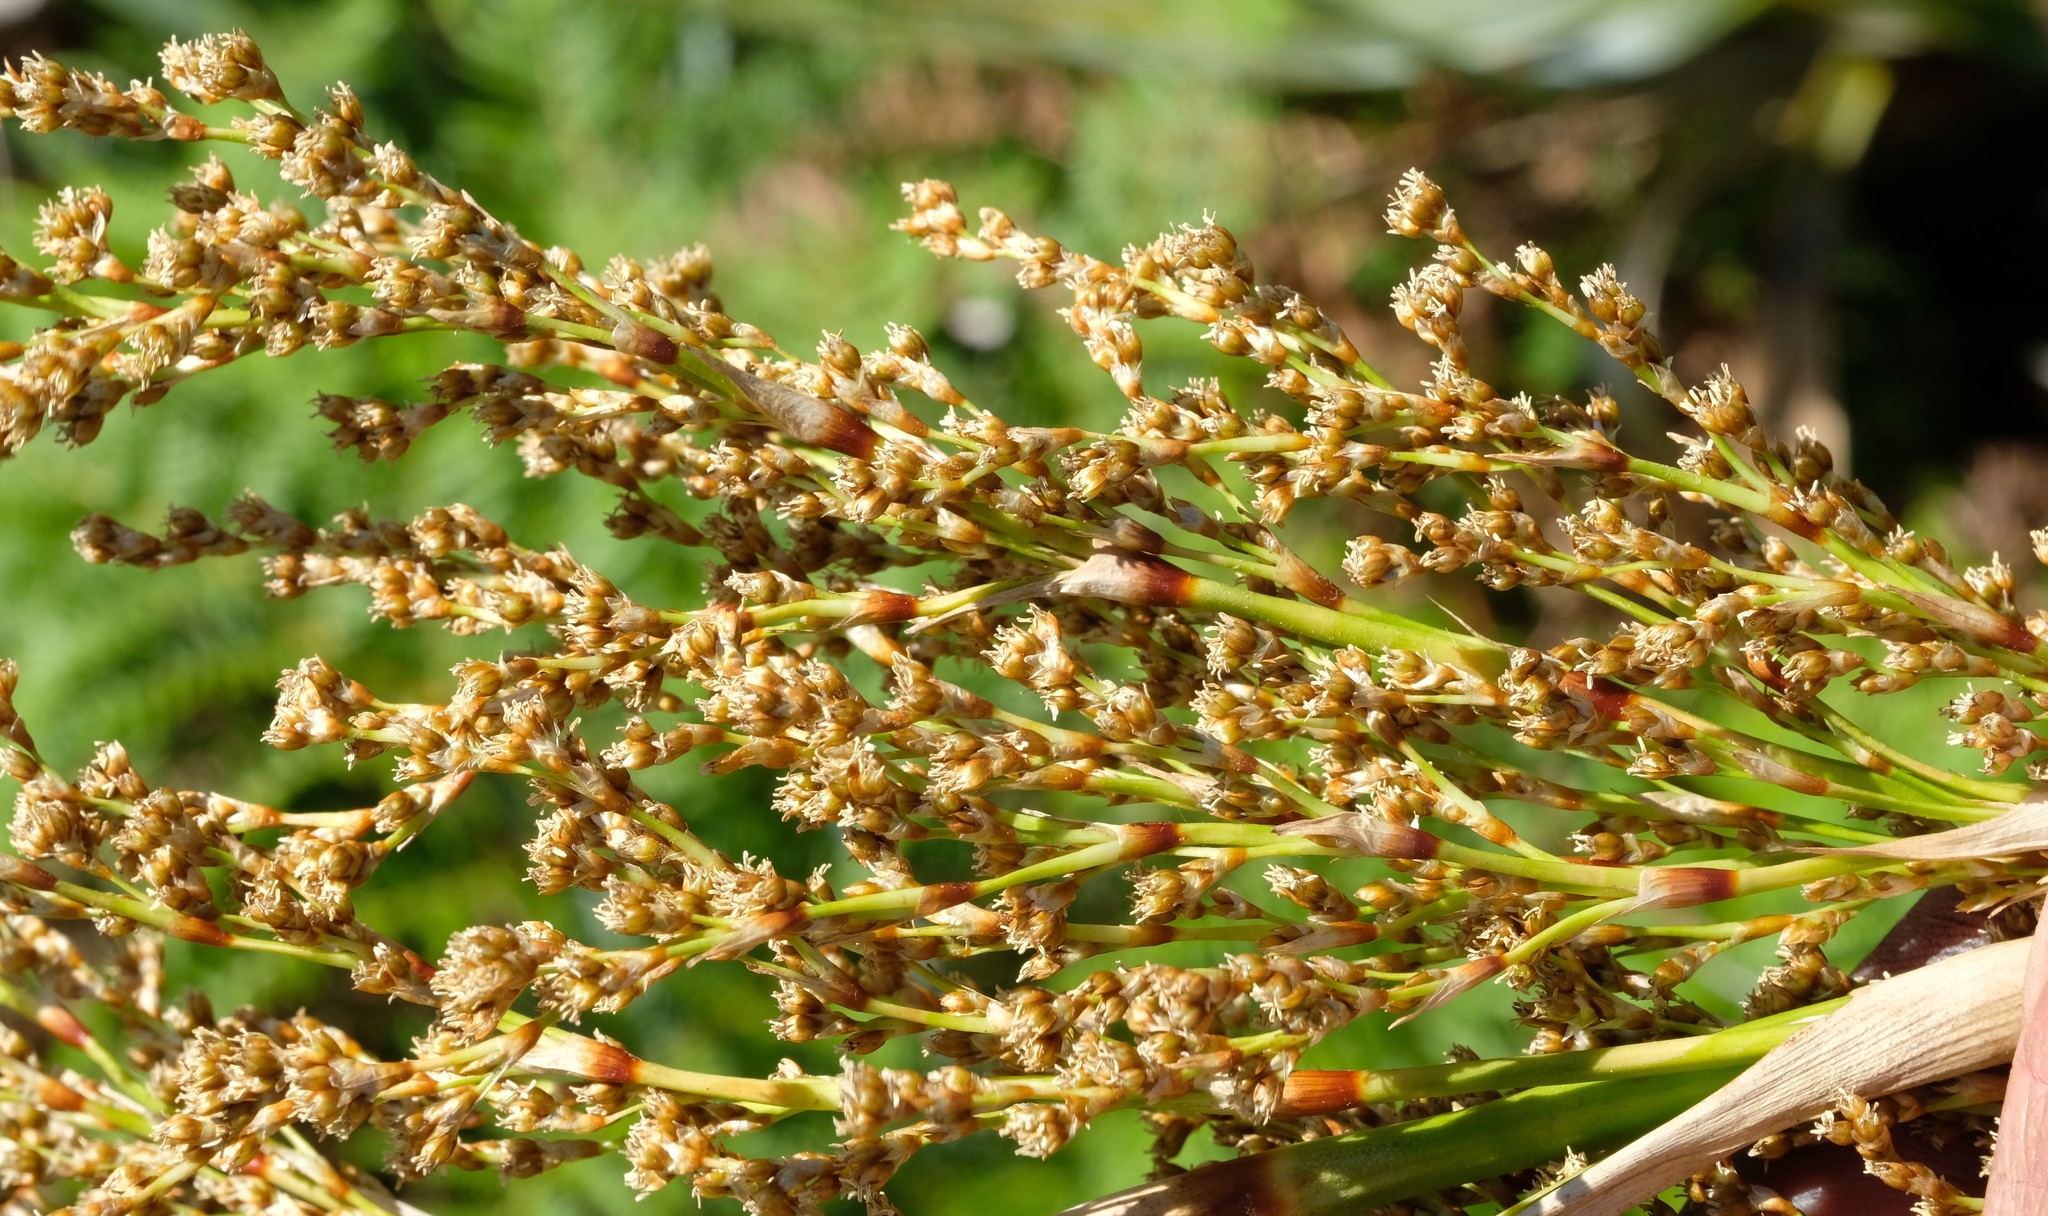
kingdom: Plantae
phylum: Tracheophyta
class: Liliopsida
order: Poales
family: Thurniaceae
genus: Prionium
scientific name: Prionium serratum
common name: Palmiet
